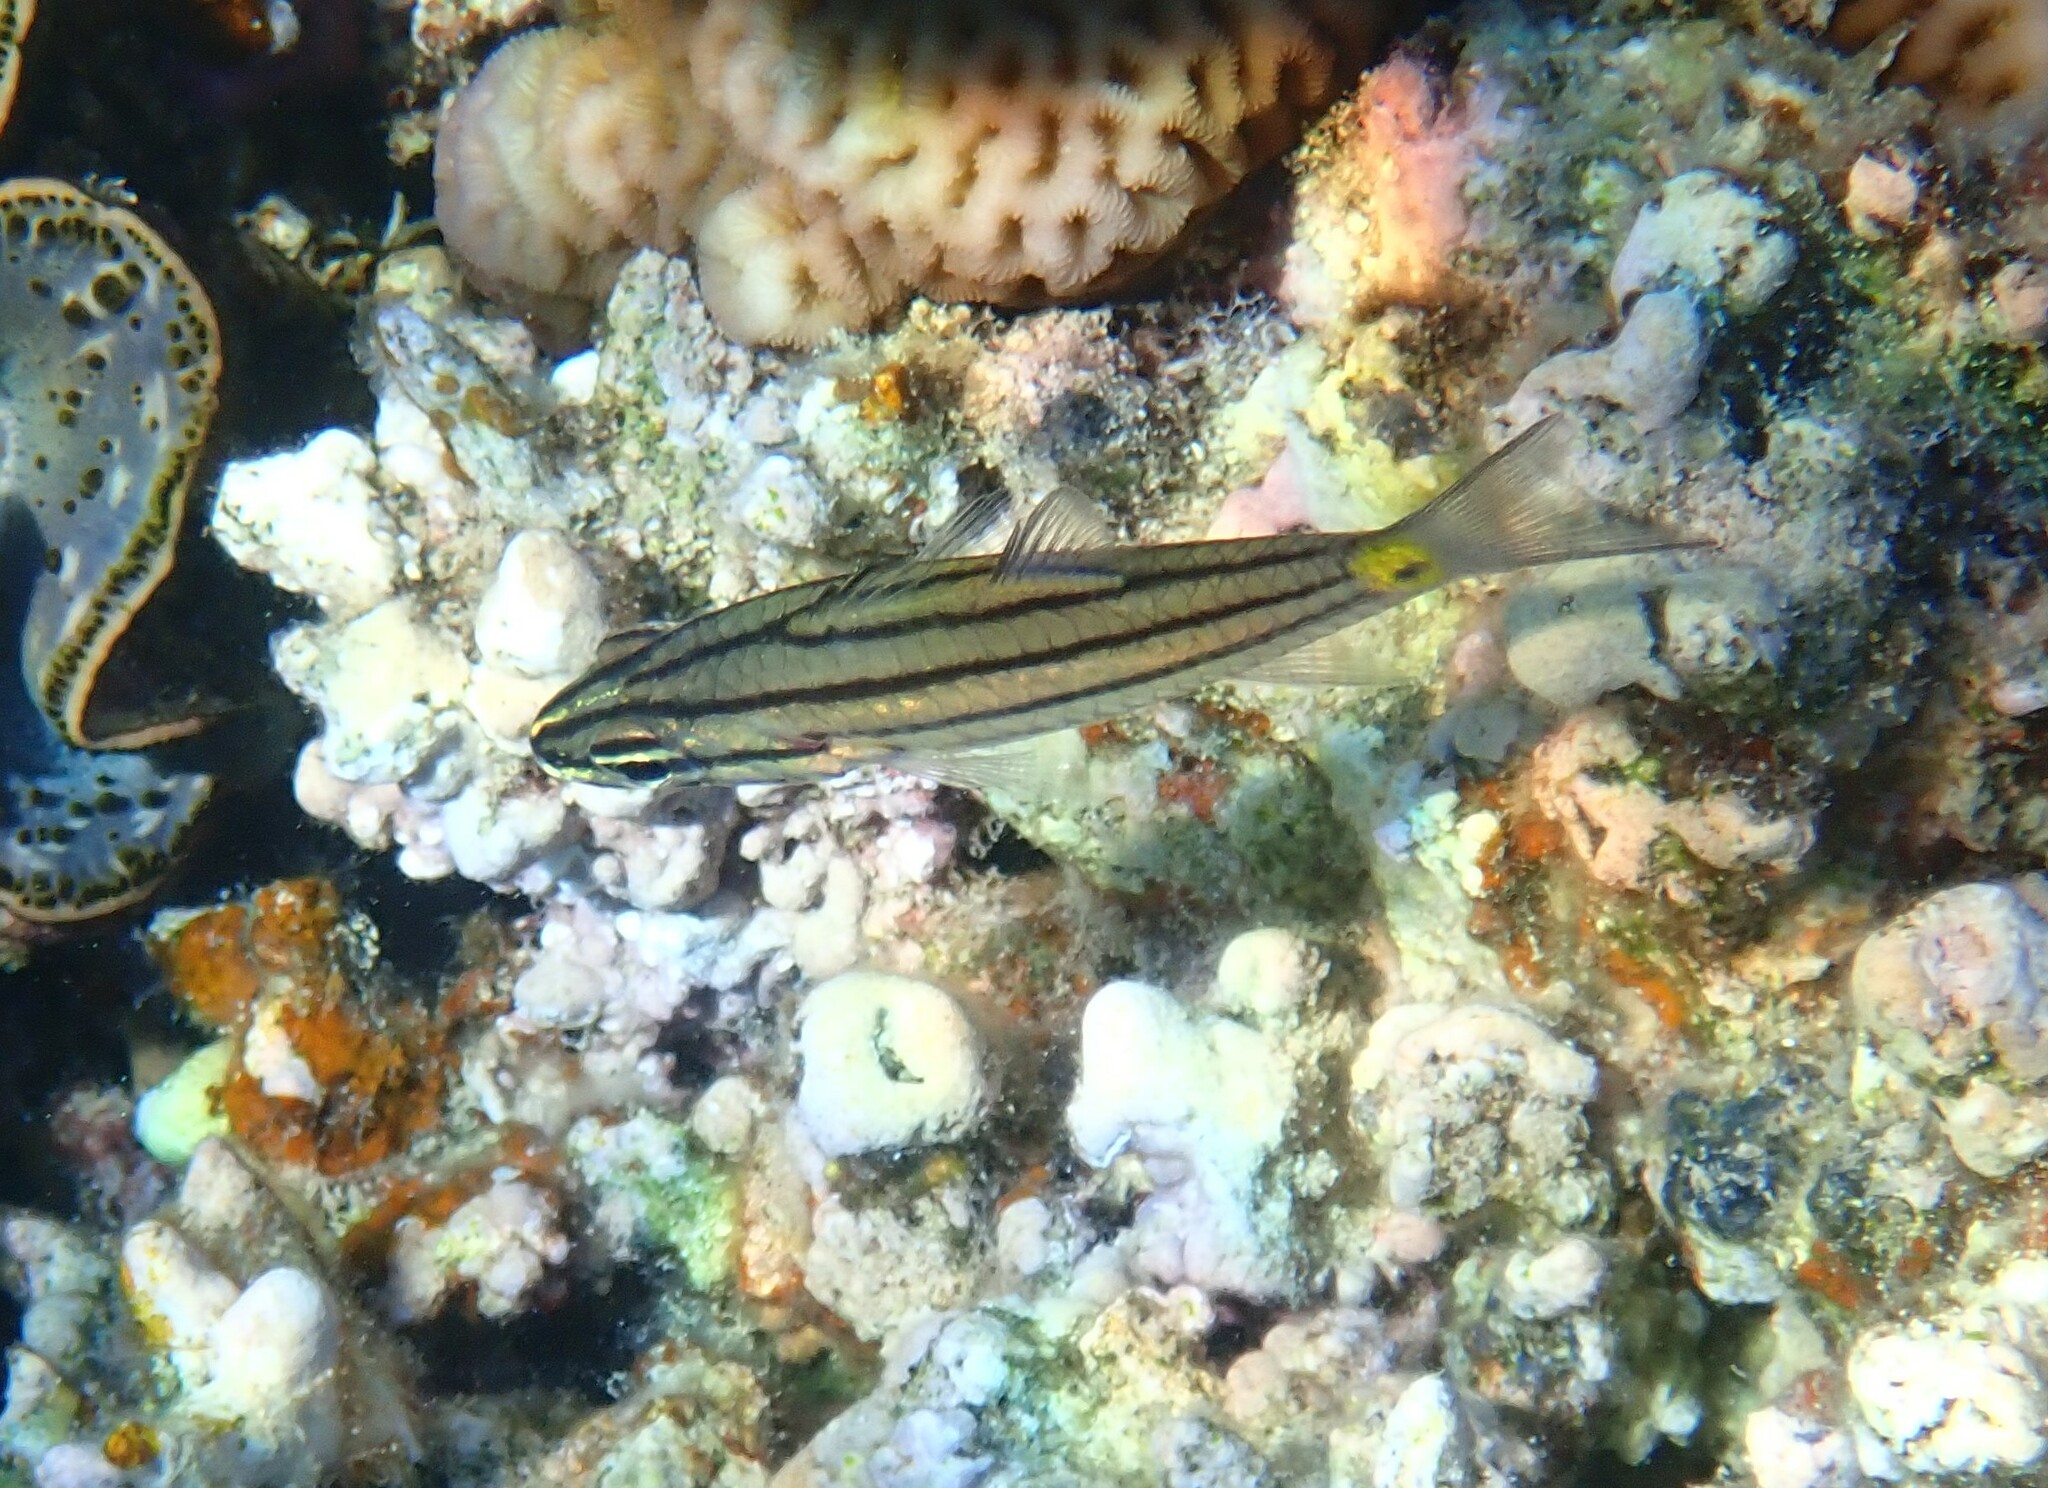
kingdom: Animalia
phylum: Chordata
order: Perciformes
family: Apogonidae
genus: Cheilodipterus
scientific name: Cheilodipterus quinquelineatus
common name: Five-lined cardinalfish
